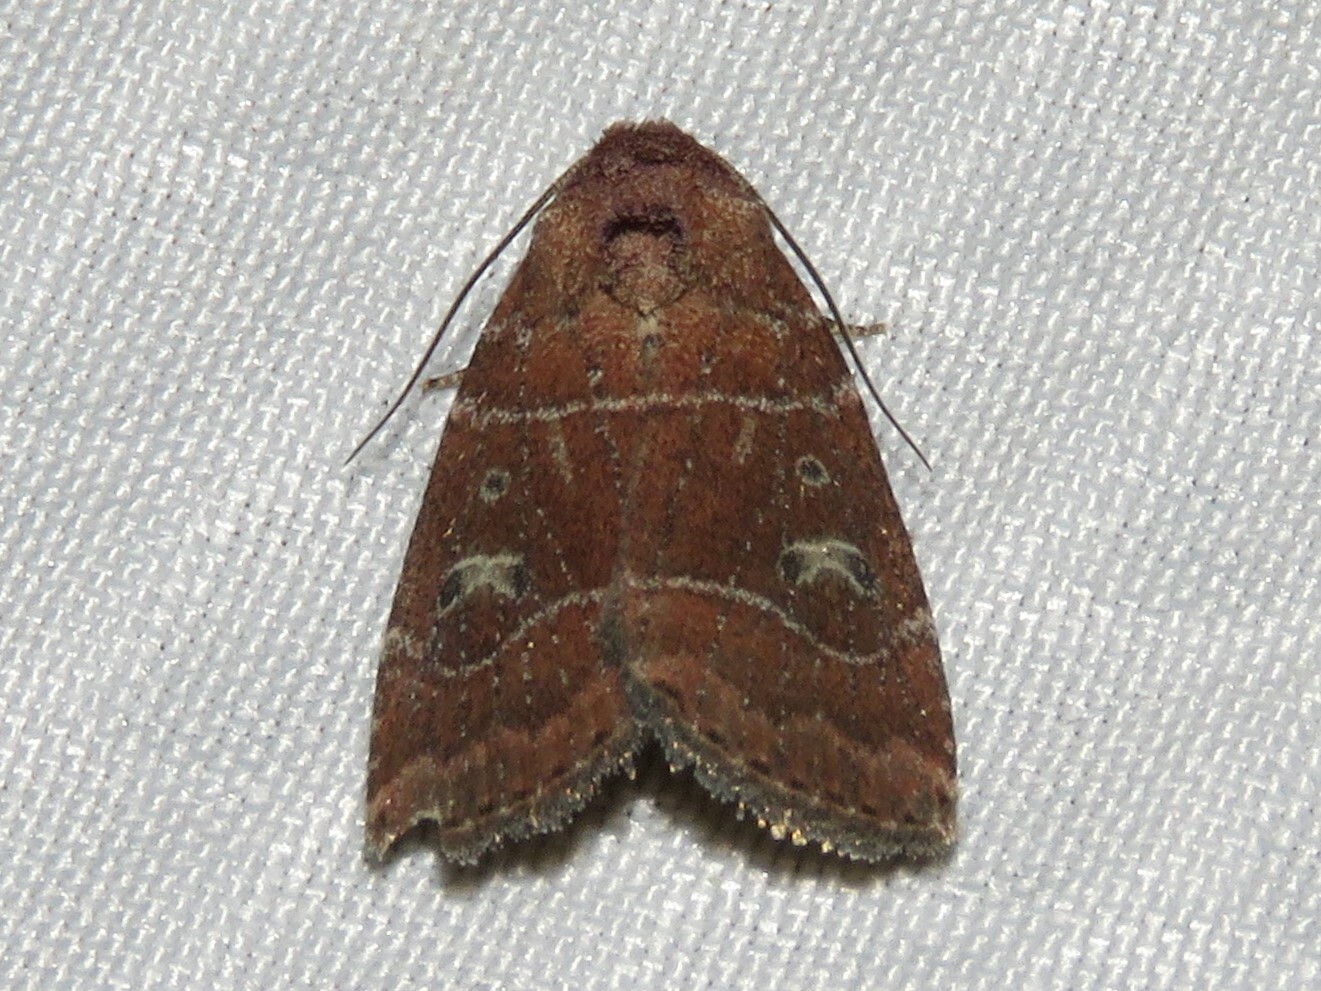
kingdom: Animalia
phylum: Arthropoda
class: Insecta
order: Lepidoptera
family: Noctuidae
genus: Elaphria
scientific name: Elaphria grata
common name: Grateful midget moth
